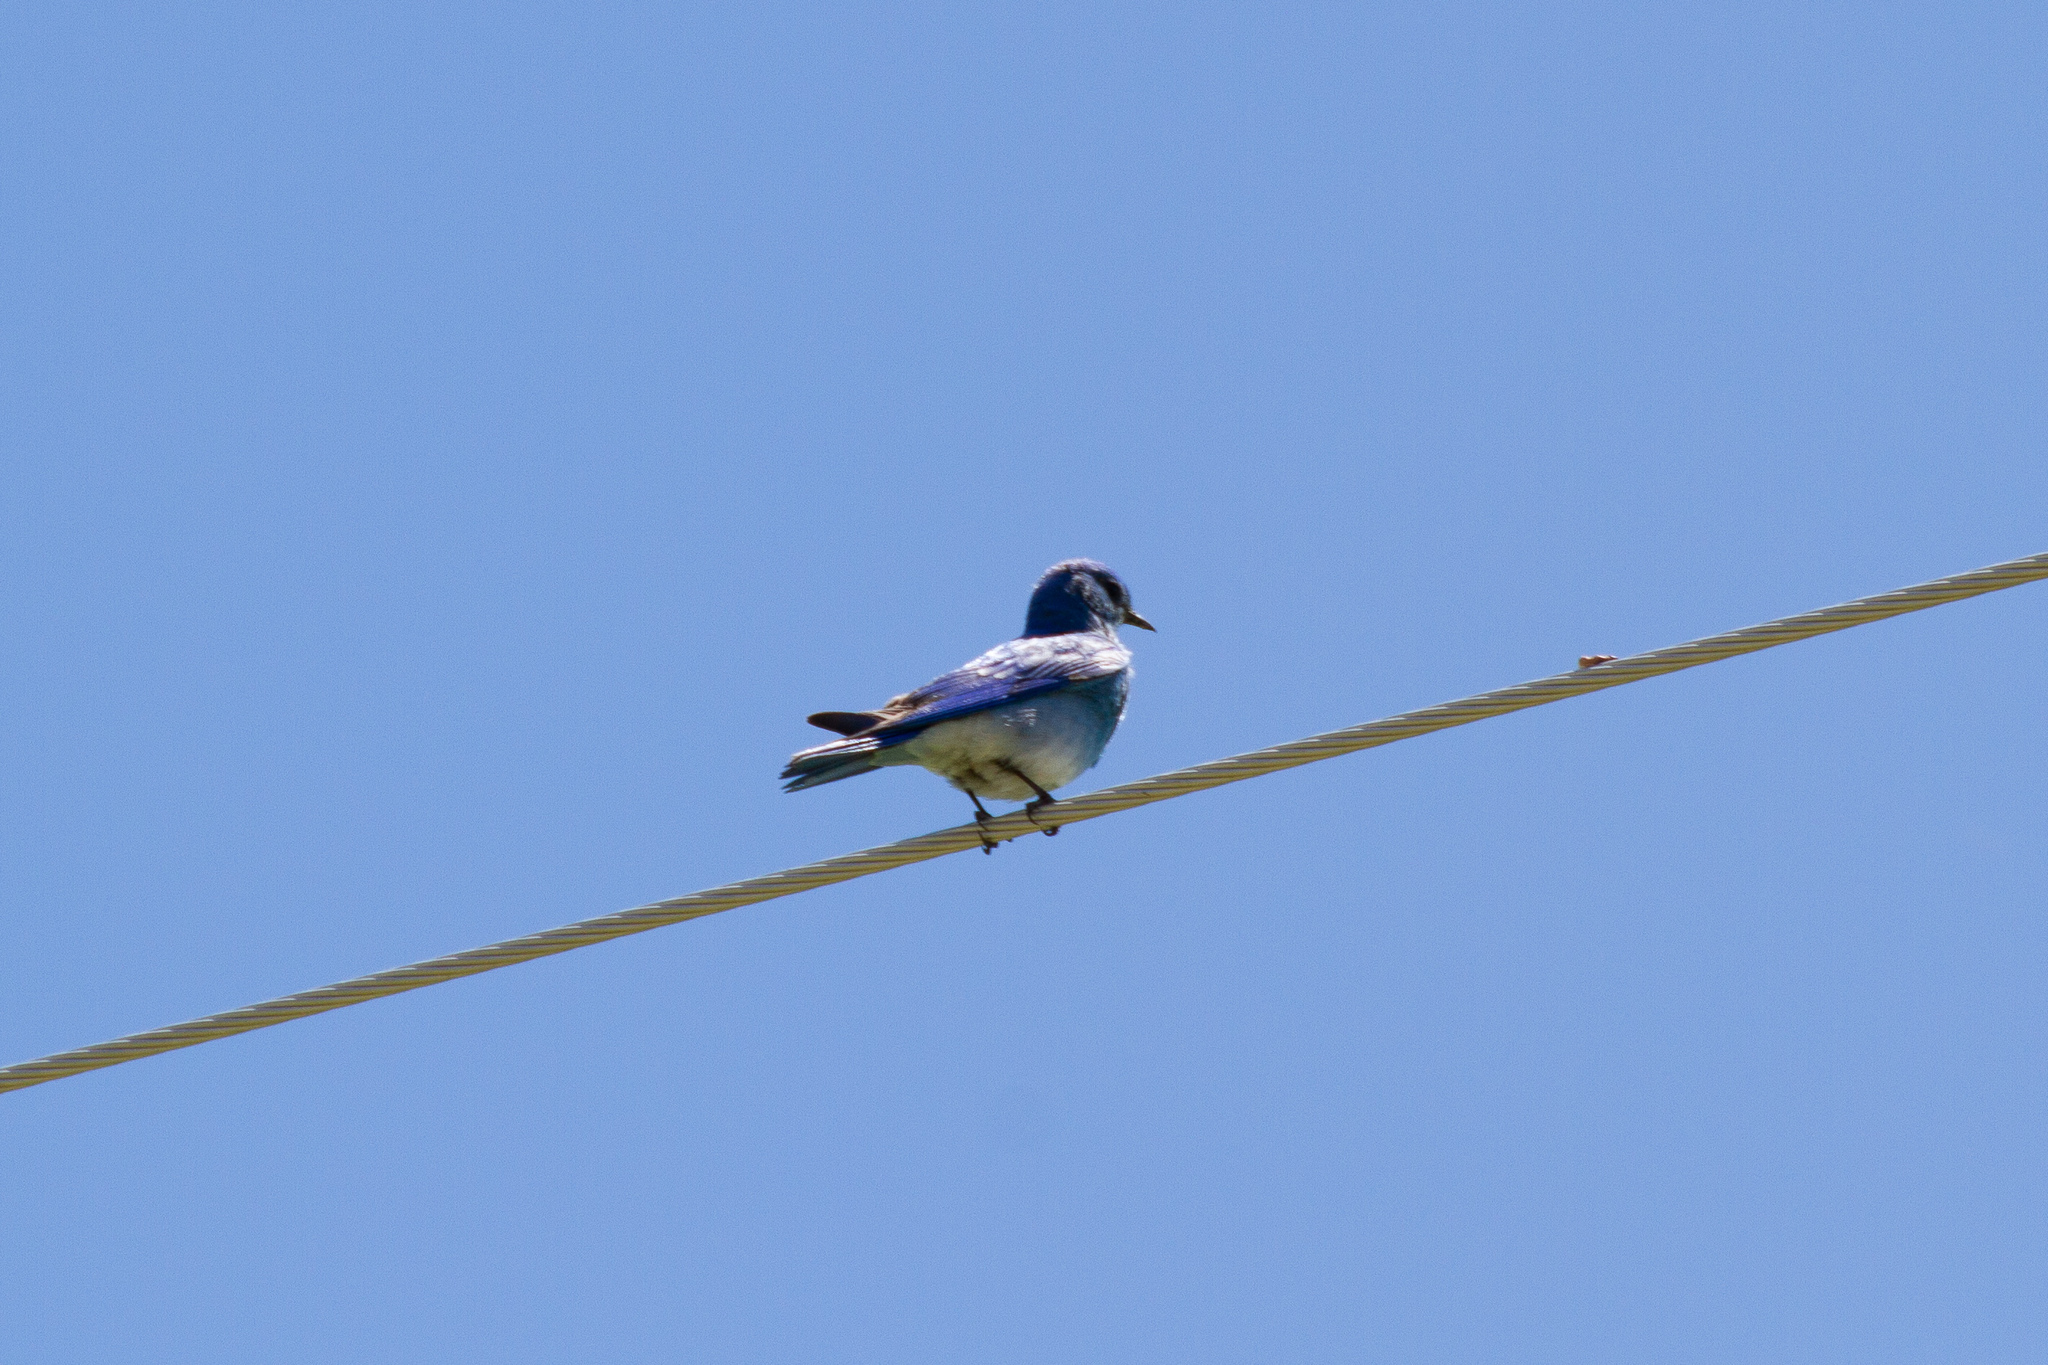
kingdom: Animalia
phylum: Chordata
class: Aves
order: Passeriformes
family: Turdidae
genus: Sialia
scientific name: Sialia currucoides
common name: Mountain bluebird
